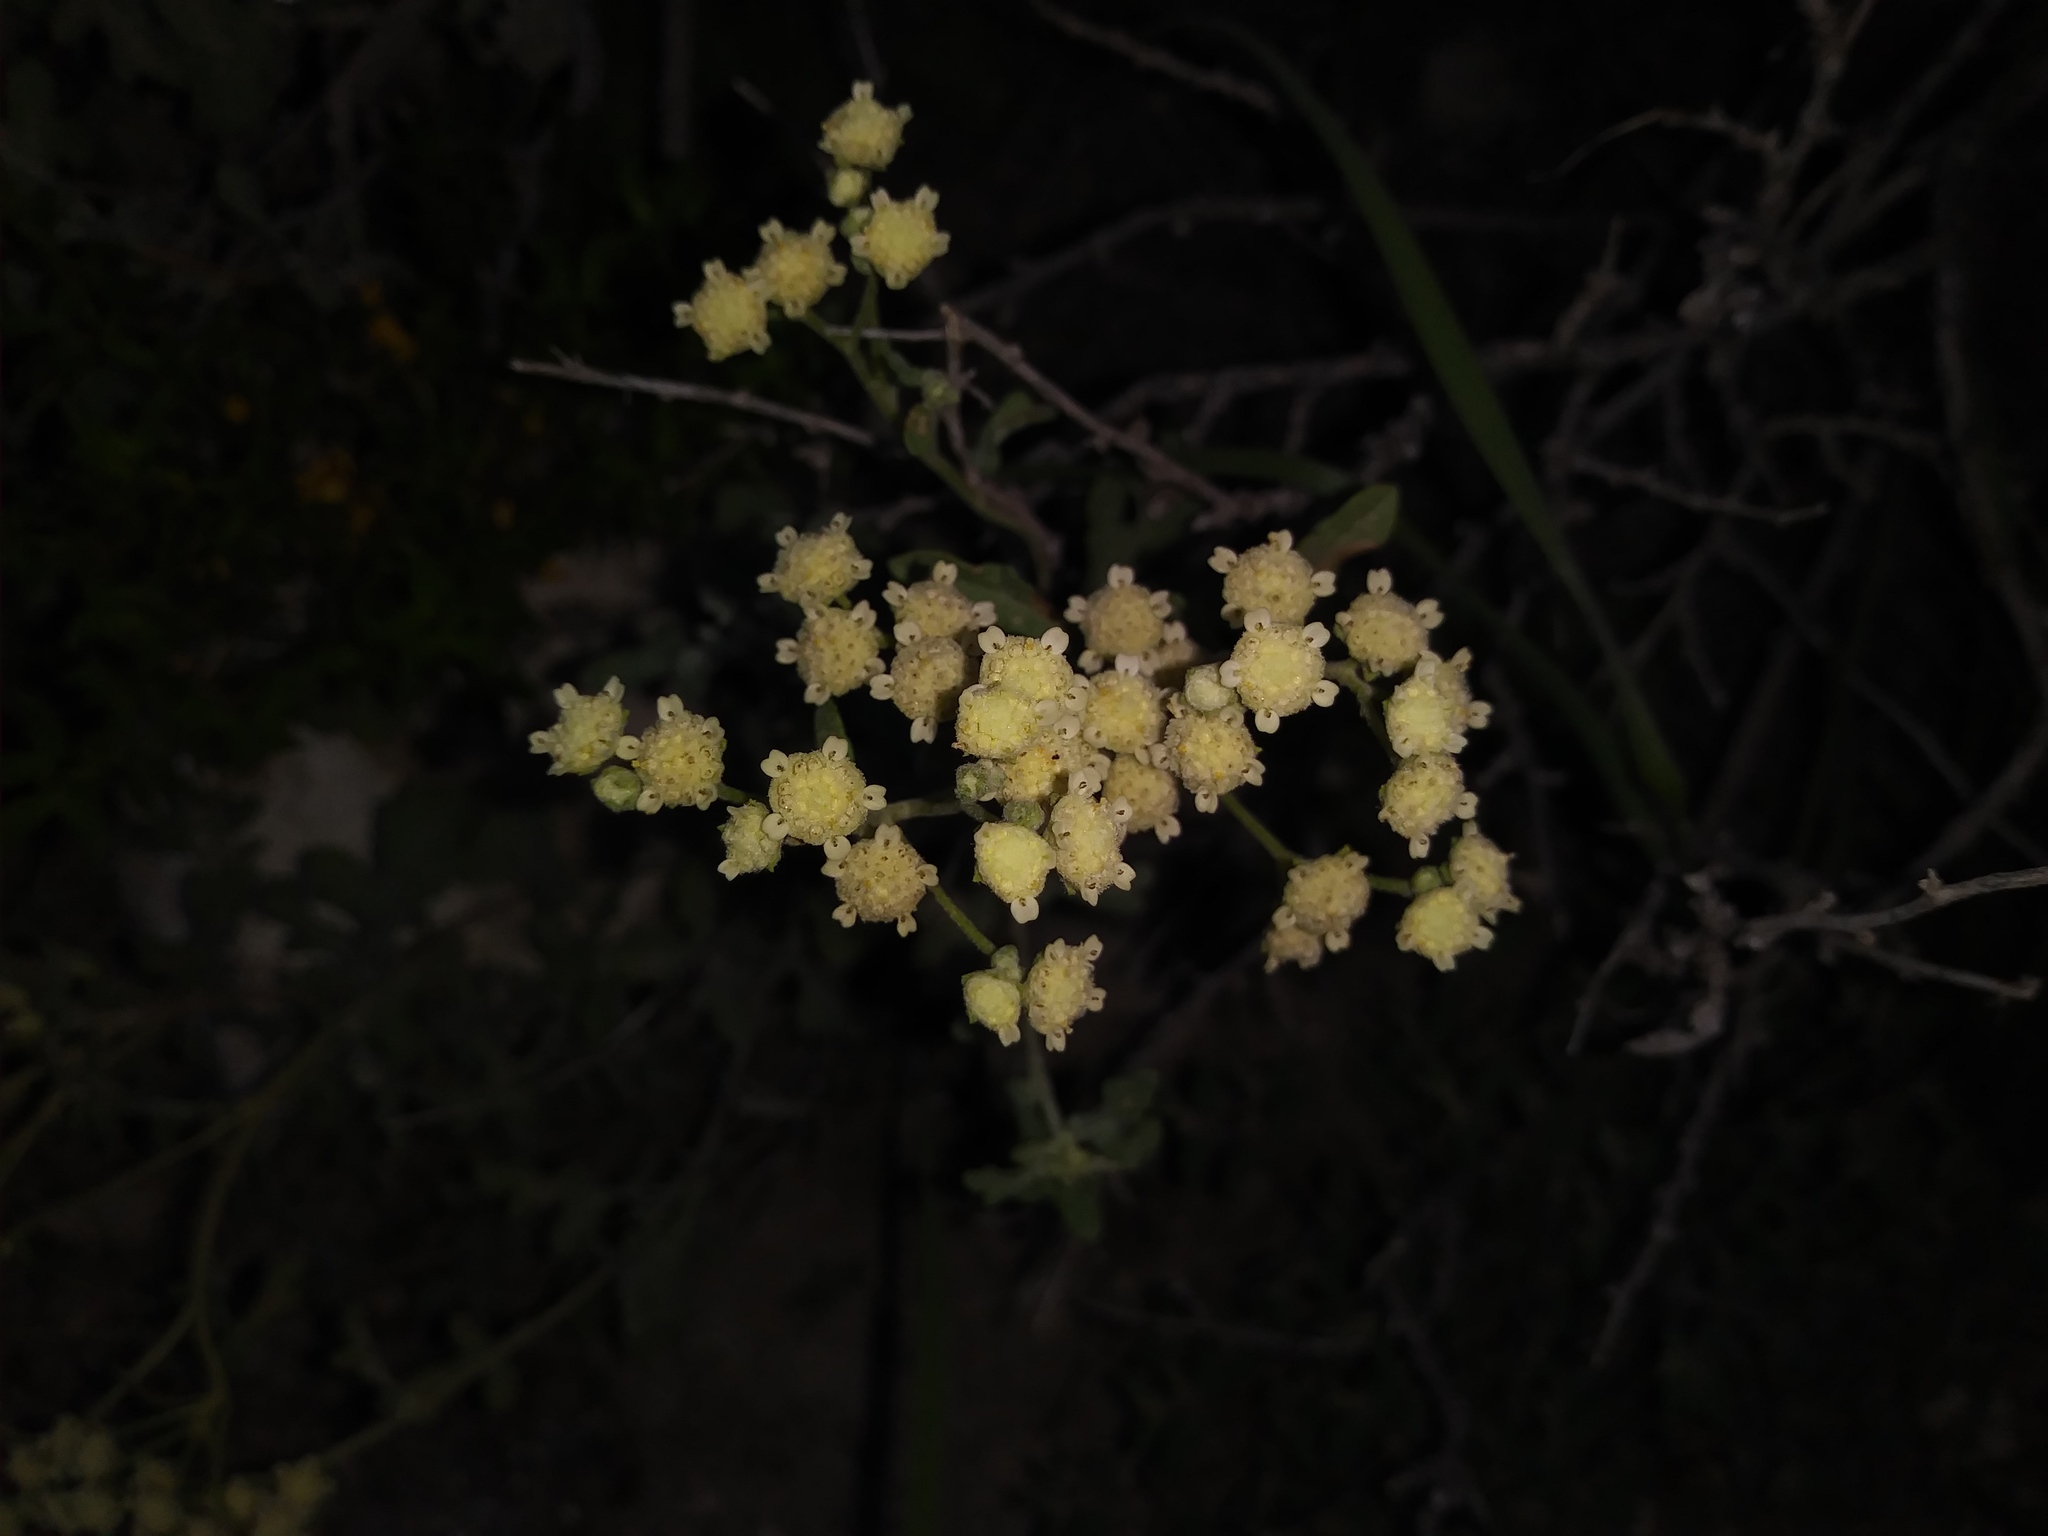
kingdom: Plantae
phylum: Tracheophyta
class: Magnoliopsida
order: Asterales
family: Asteraceae
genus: Parthenium
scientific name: Parthenium incanum
